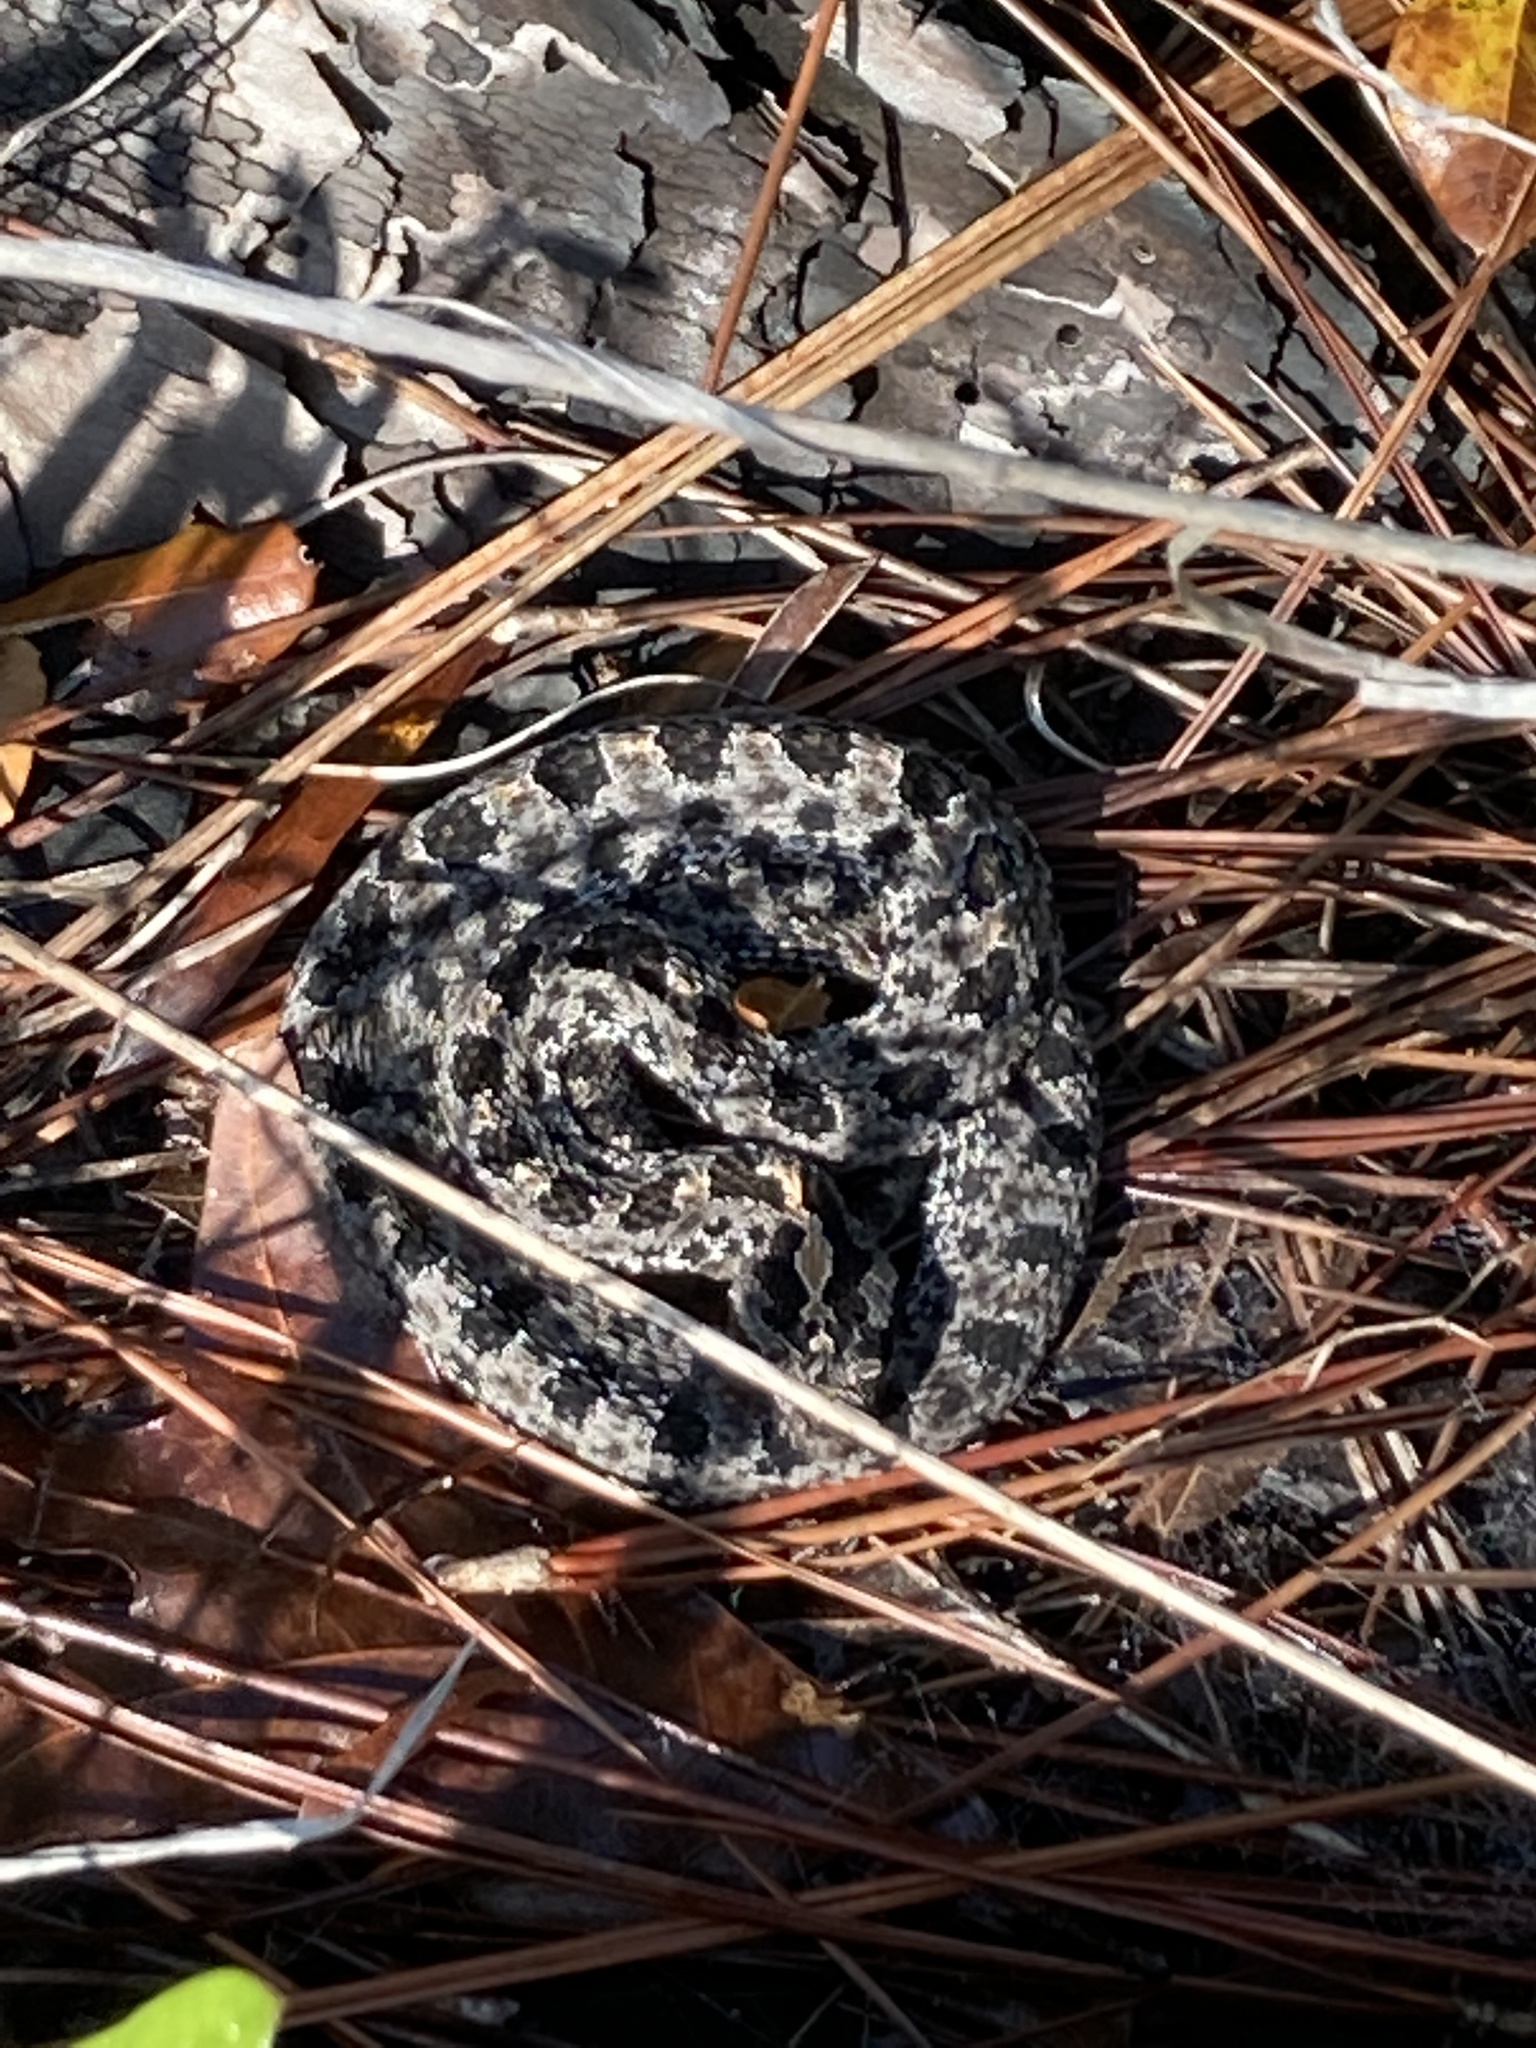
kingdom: Animalia
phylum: Chordata
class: Squamata
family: Viperidae
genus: Sistrurus
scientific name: Sistrurus miliarius
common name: Pygmy rattlesnake
